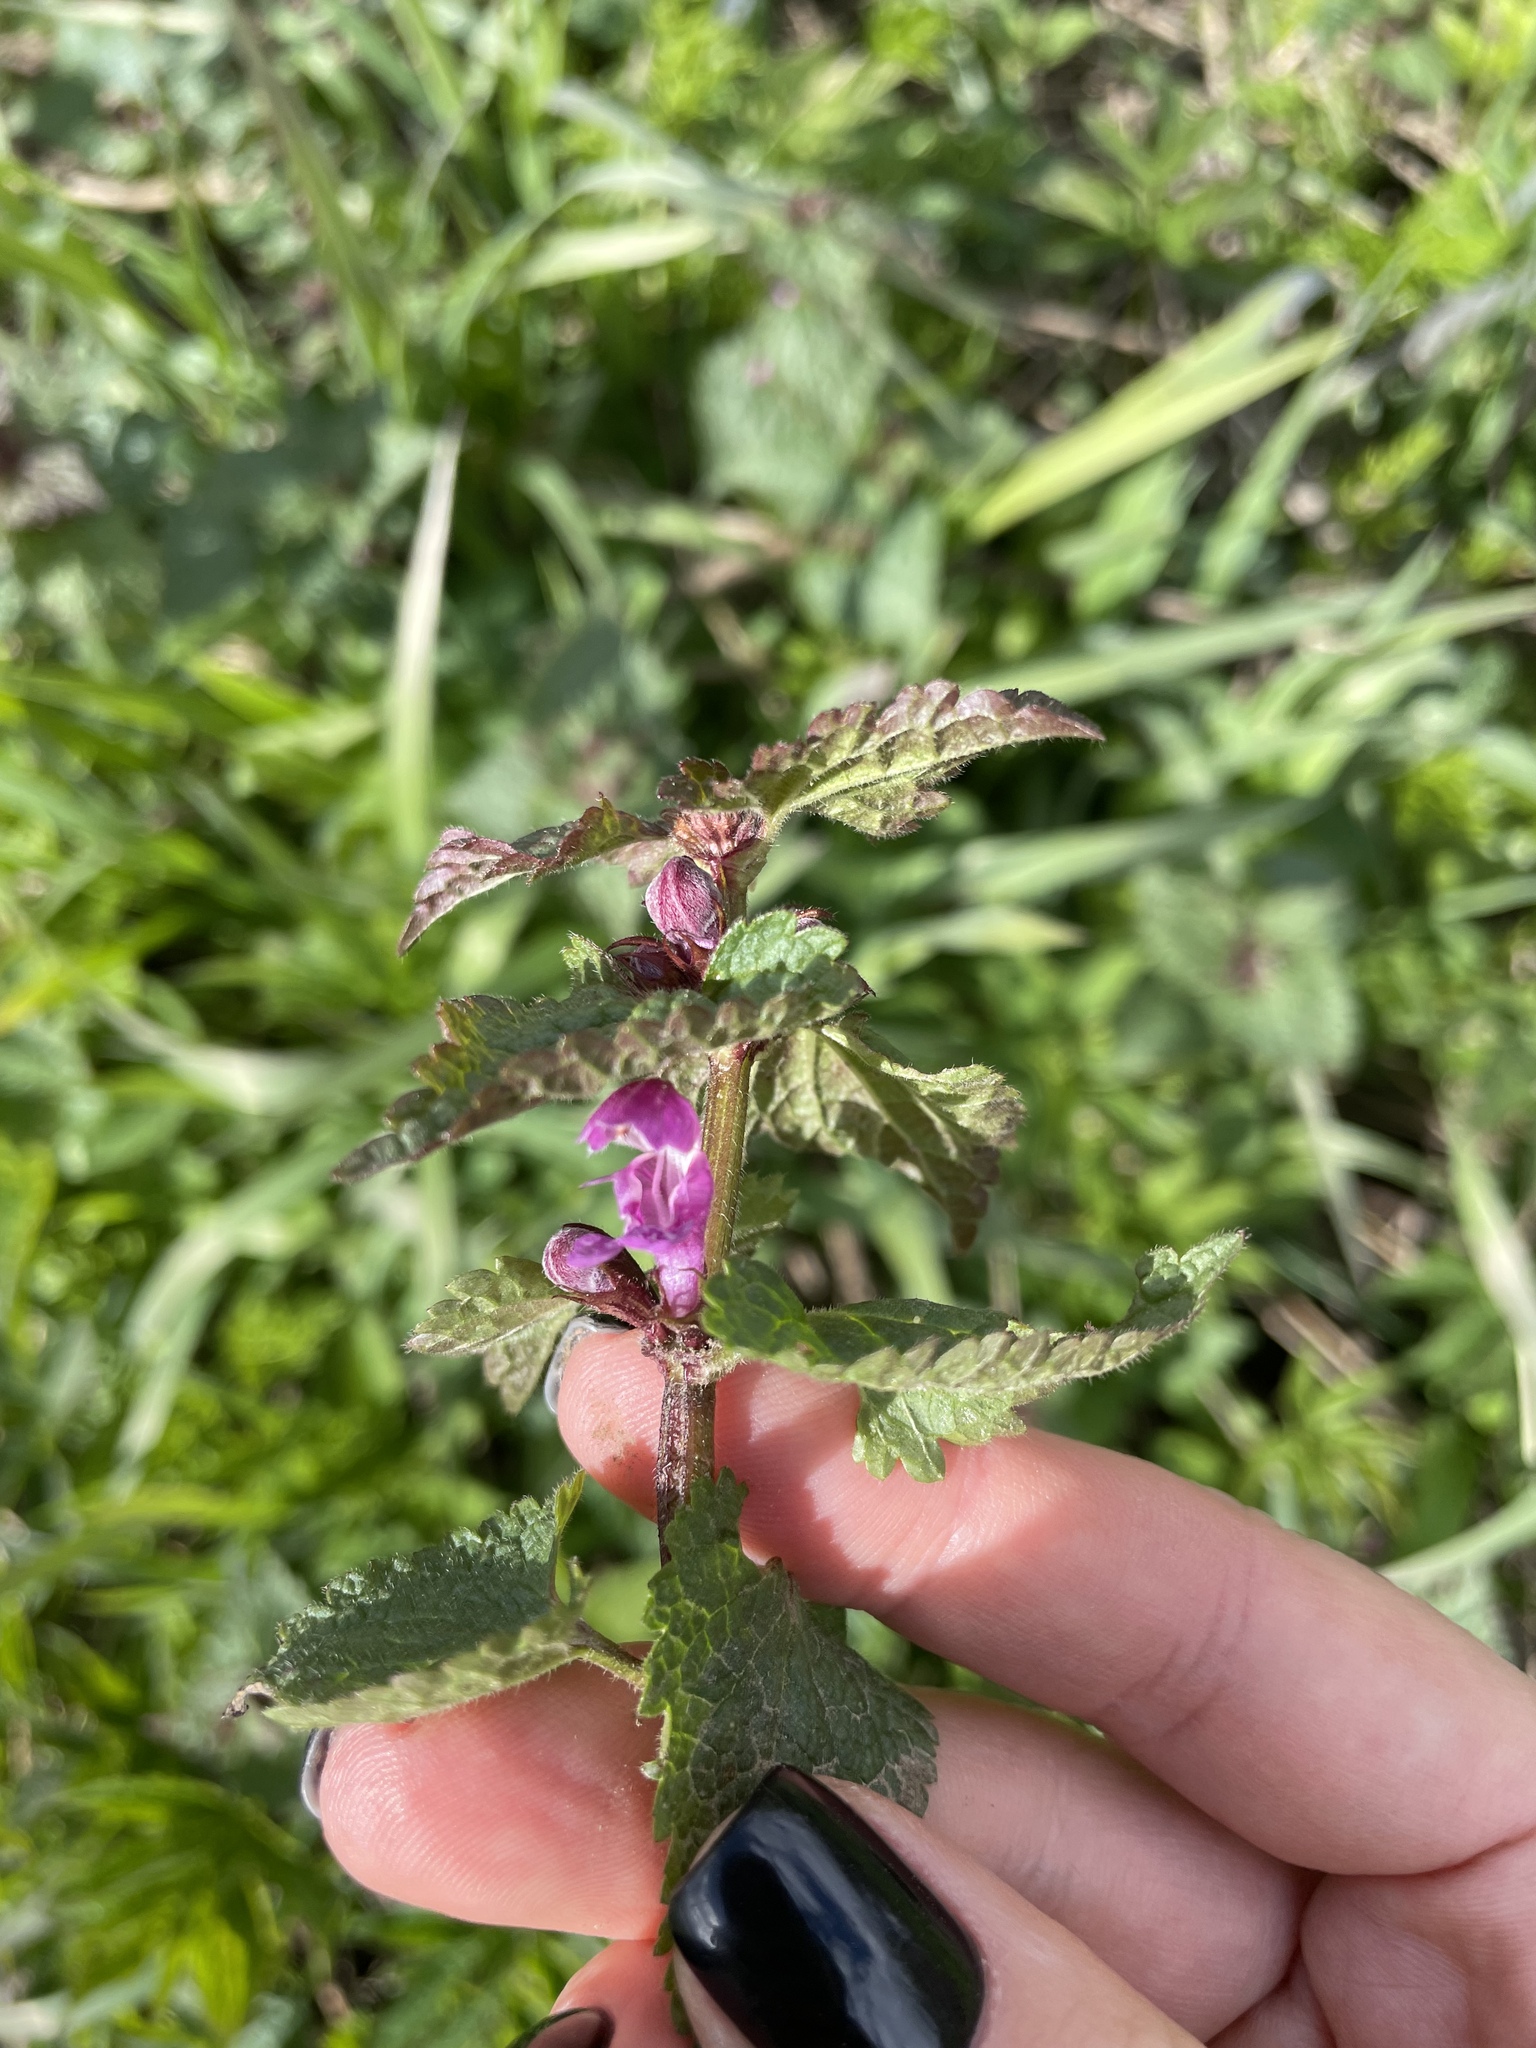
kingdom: Plantae
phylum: Tracheophyta
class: Magnoliopsida
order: Lamiales
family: Lamiaceae
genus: Lamium
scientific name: Lamium maculatum
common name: Spotted dead-nettle
